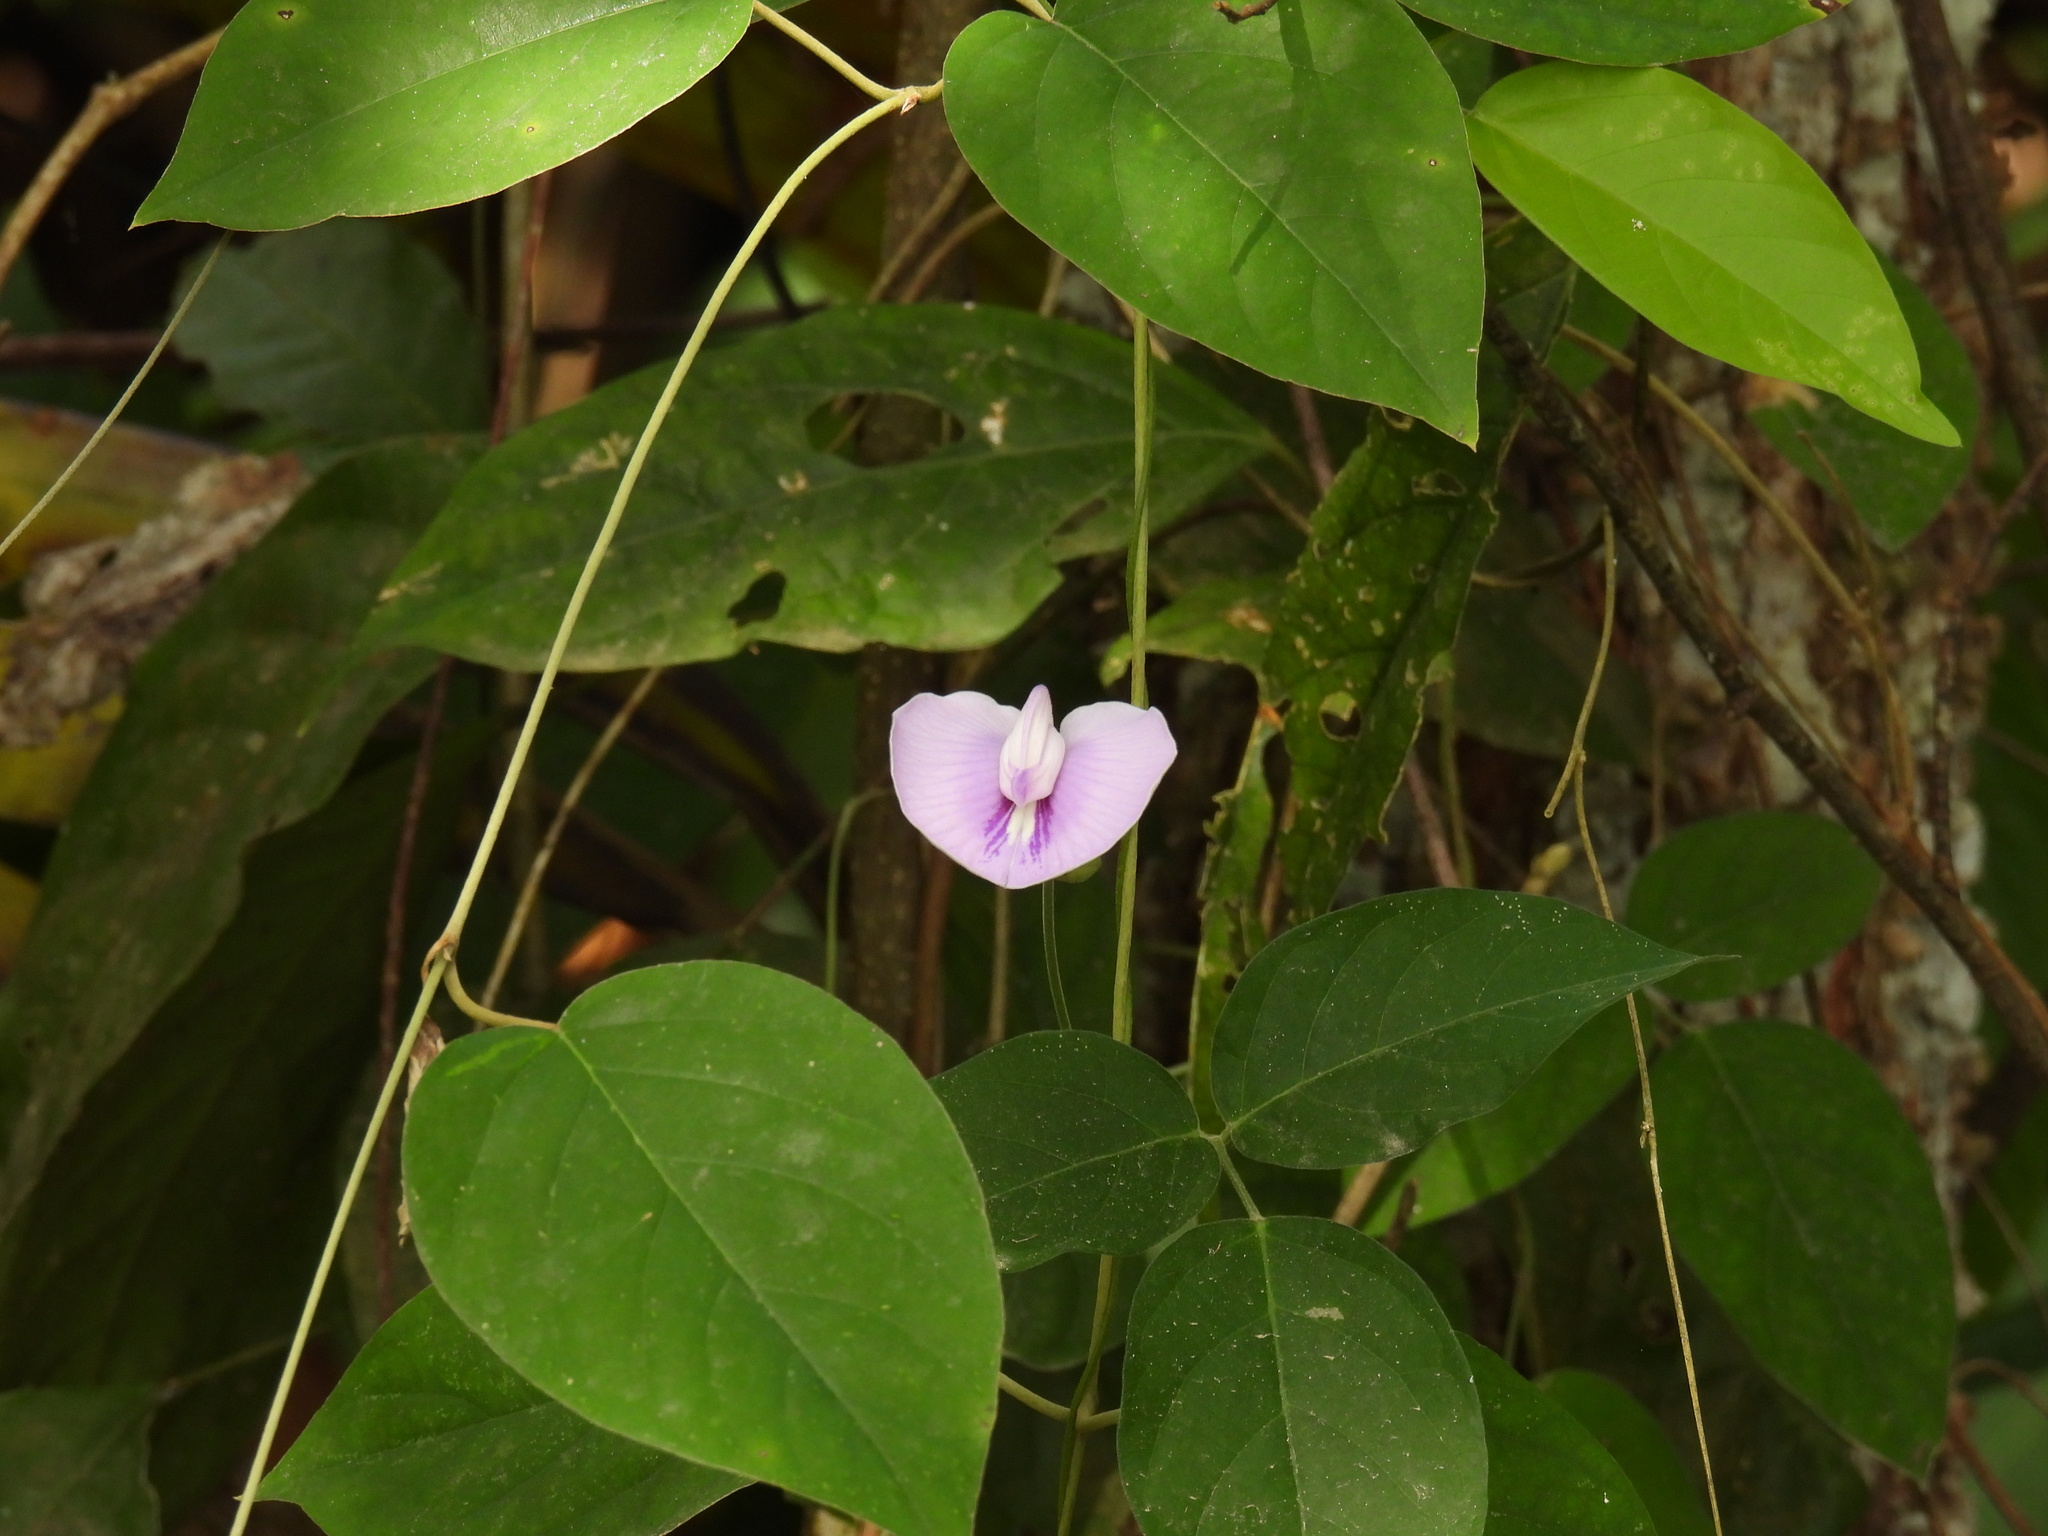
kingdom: Plantae
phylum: Tracheophyta
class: Magnoliopsida
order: Fabales
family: Fabaceae
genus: Centrosema
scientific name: Centrosema virginianum
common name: Butterfly-pea
